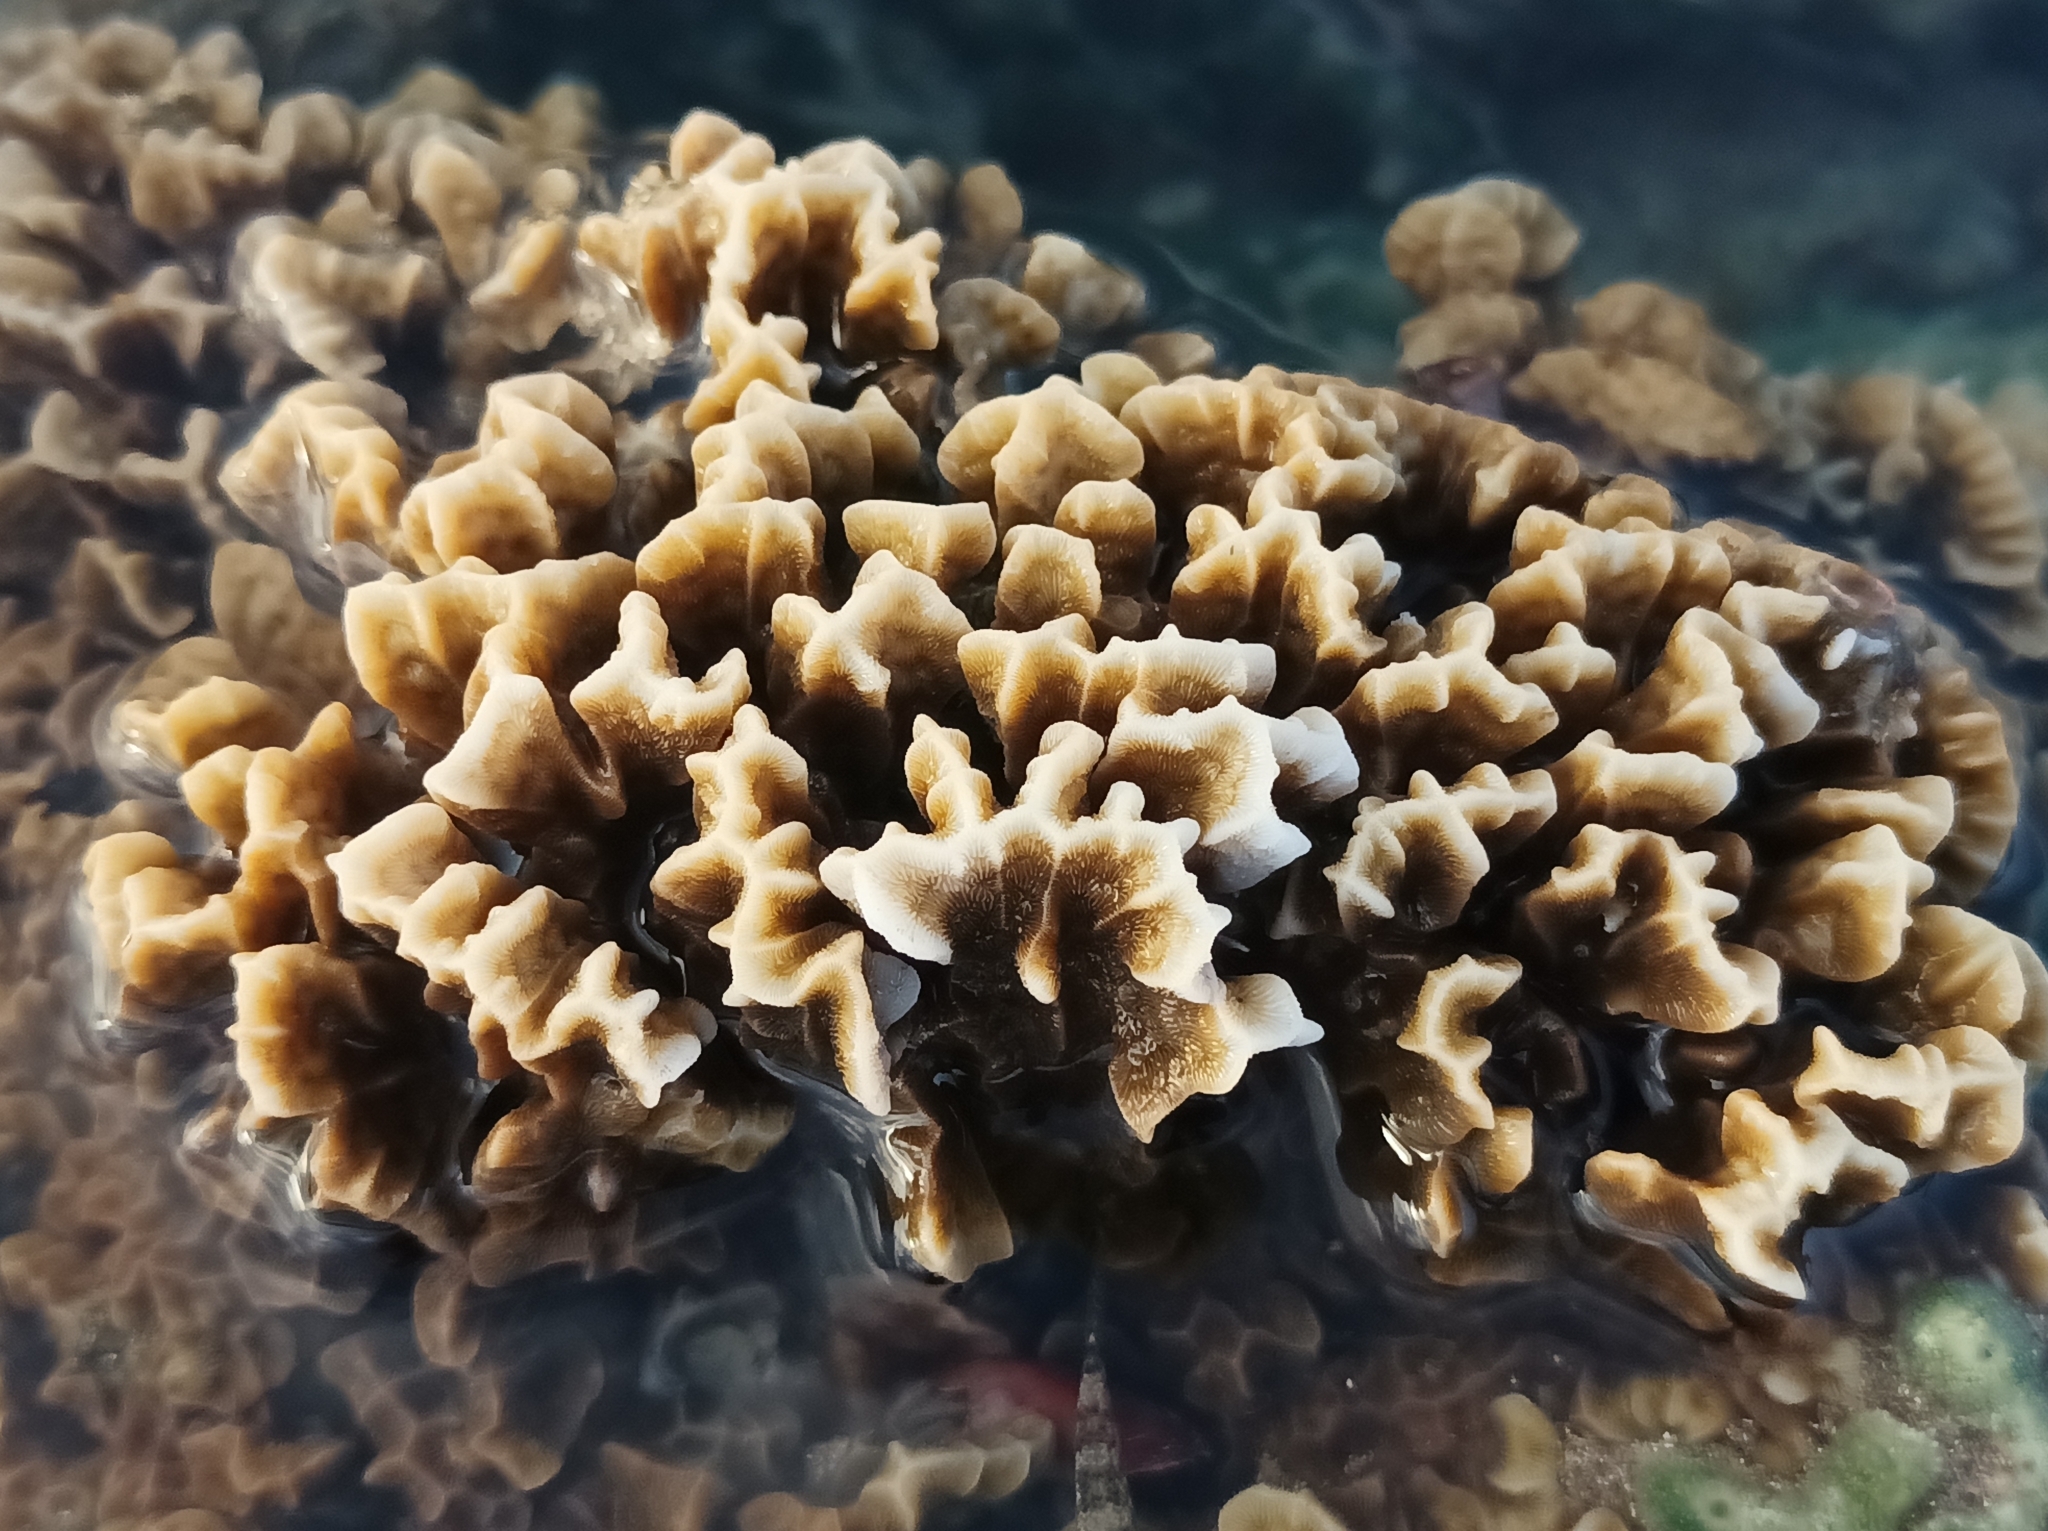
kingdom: Animalia
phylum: Cnidaria
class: Anthozoa
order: Scleractinia
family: Agariciidae
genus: Pavona
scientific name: Pavona frondifera
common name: Leaf coral
